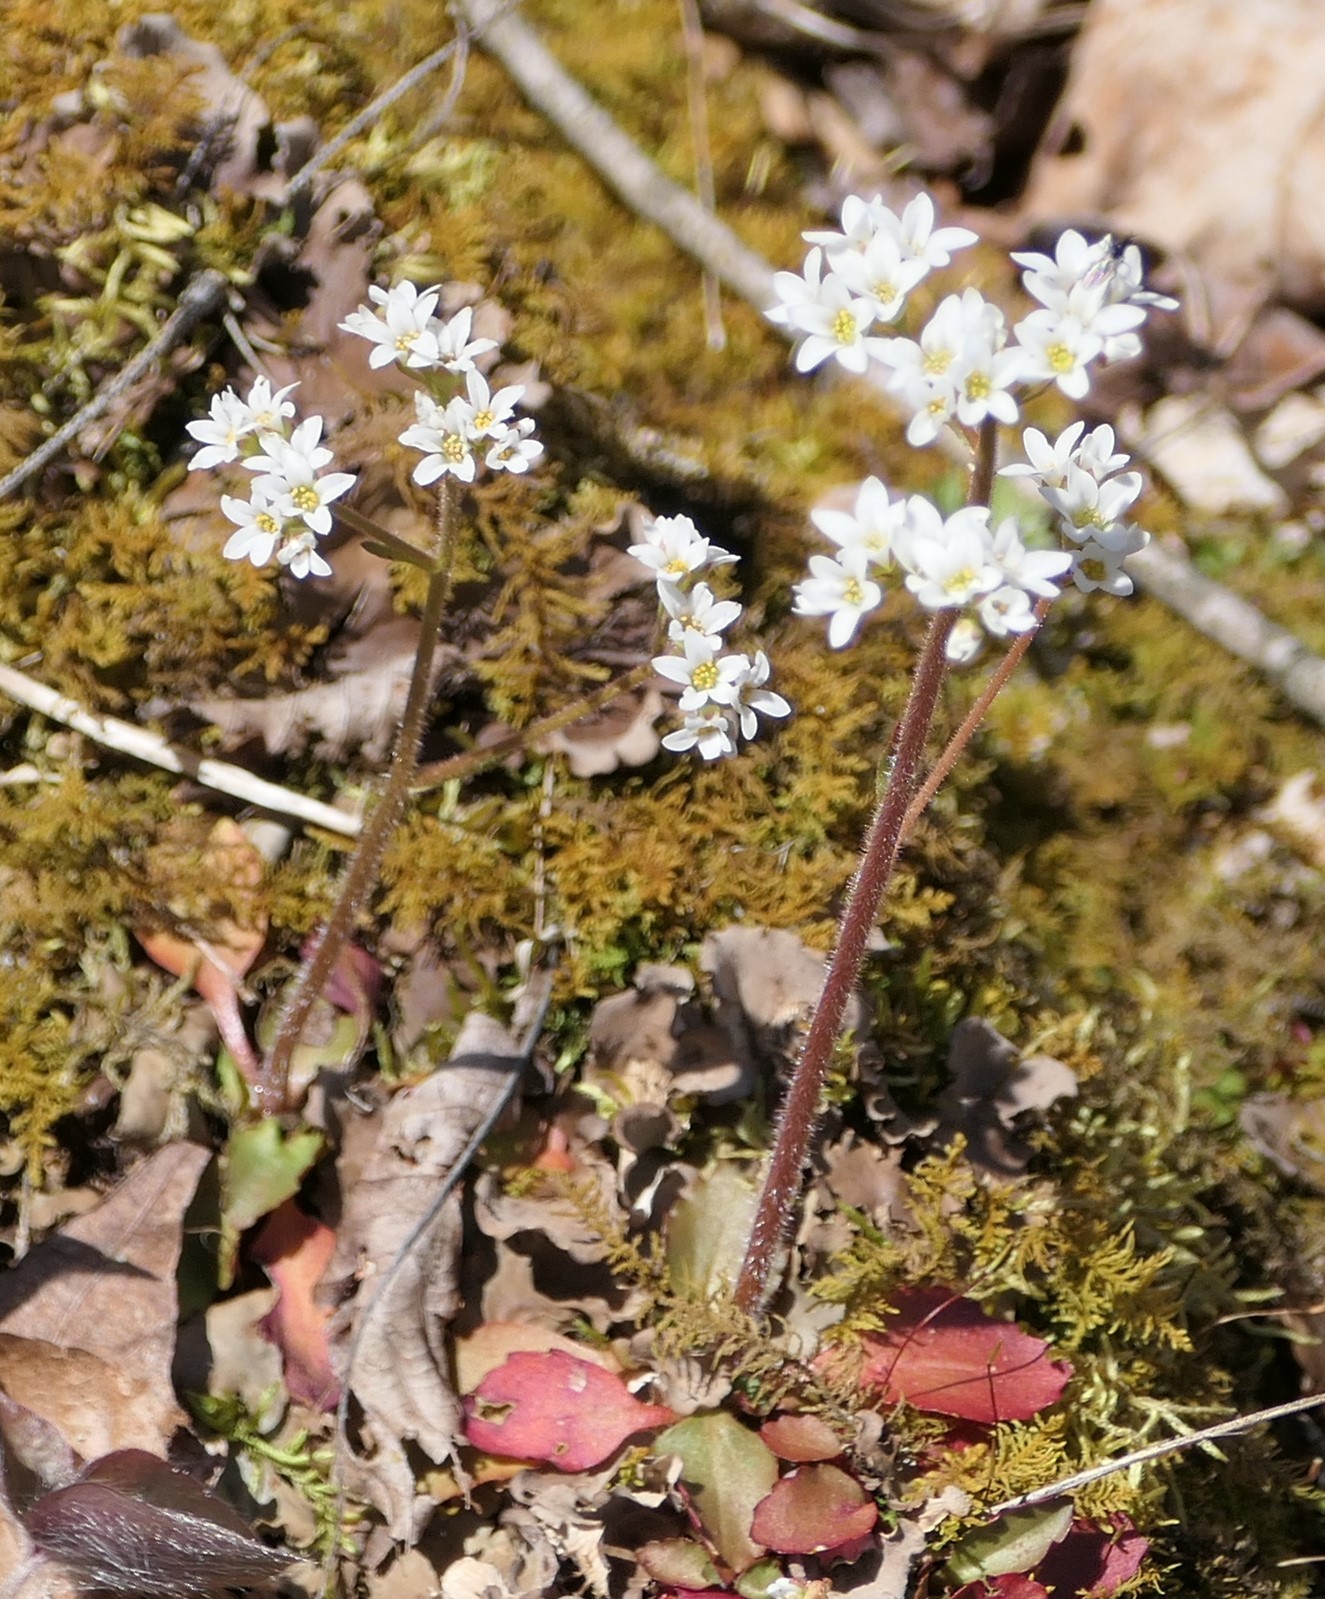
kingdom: Plantae
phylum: Tracheophyta
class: Magnoliopsida
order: Saxifragales
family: Saxifragaceae
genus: Micranthes
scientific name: Micranthes virginiensis
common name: Early saxifrage
